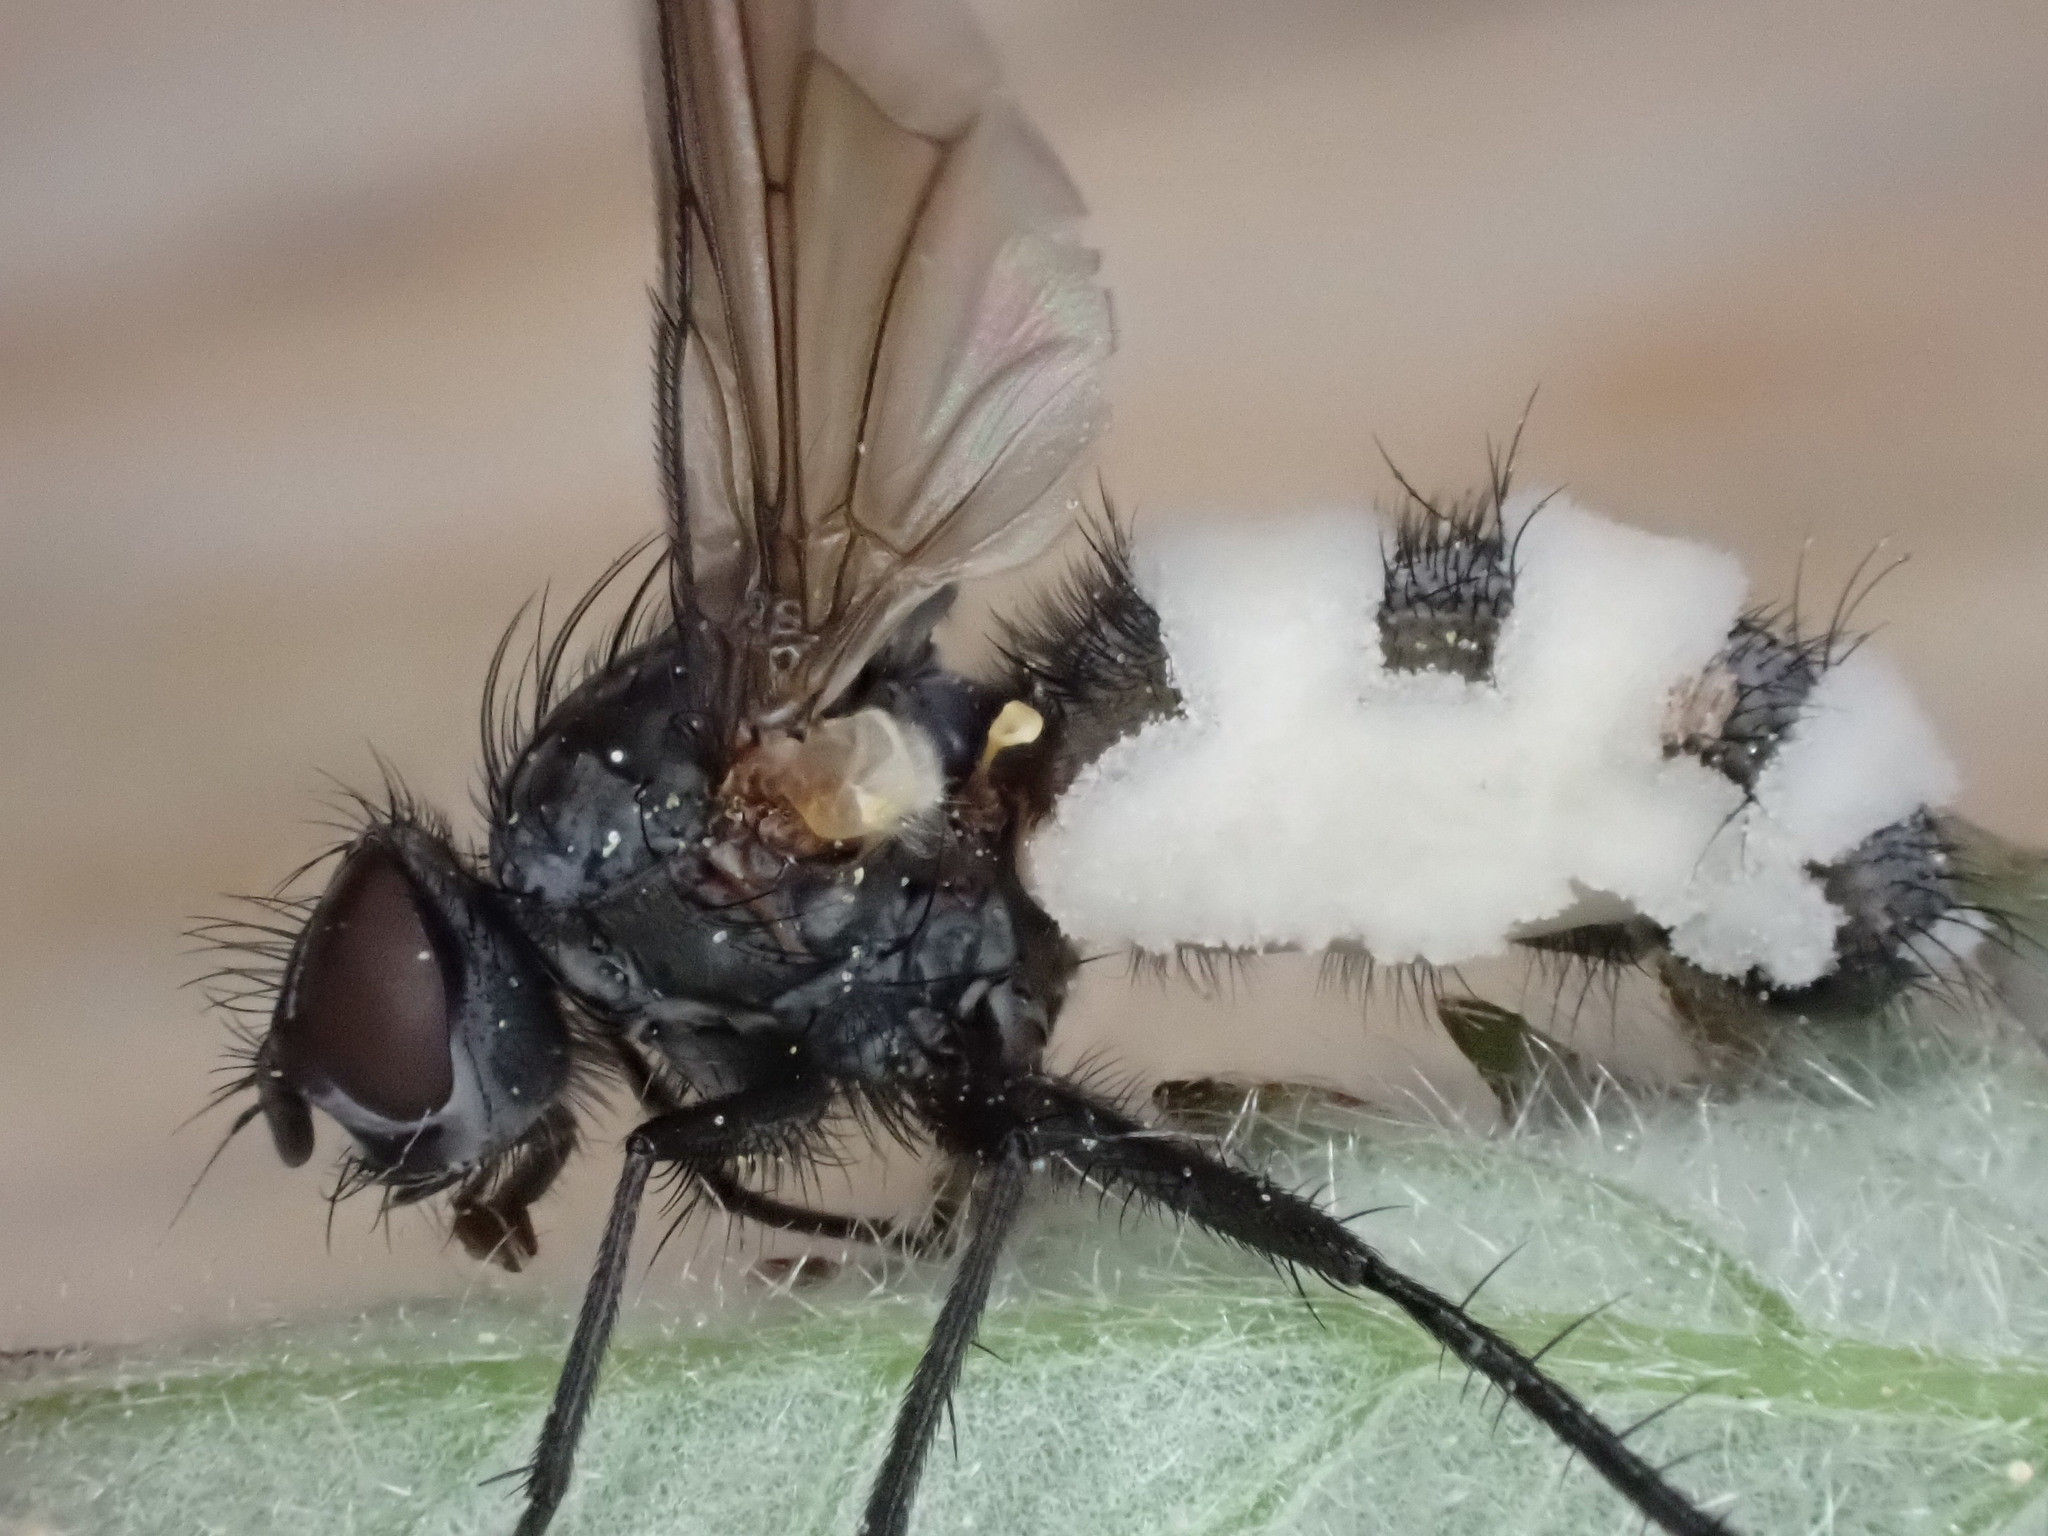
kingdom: Fungi
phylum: Entomophthoromycota
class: Entomophthoromycetes
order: Entomophthorales
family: Entomophthoraceae
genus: Entomophthora
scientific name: Entomophthora
